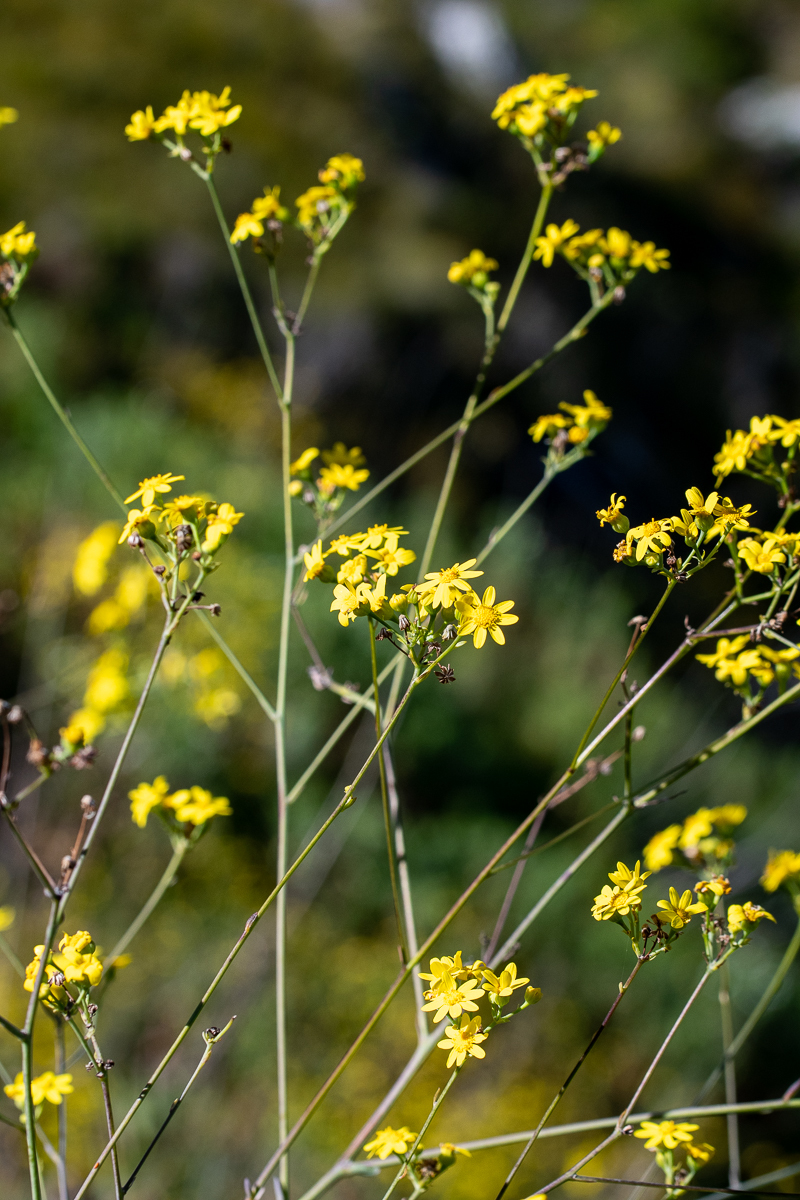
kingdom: Plantae
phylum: Tracheophyta
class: Magnoliopsida
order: Asterales
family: Asteraceae
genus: Othonna
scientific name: Othonna quinquedentata
